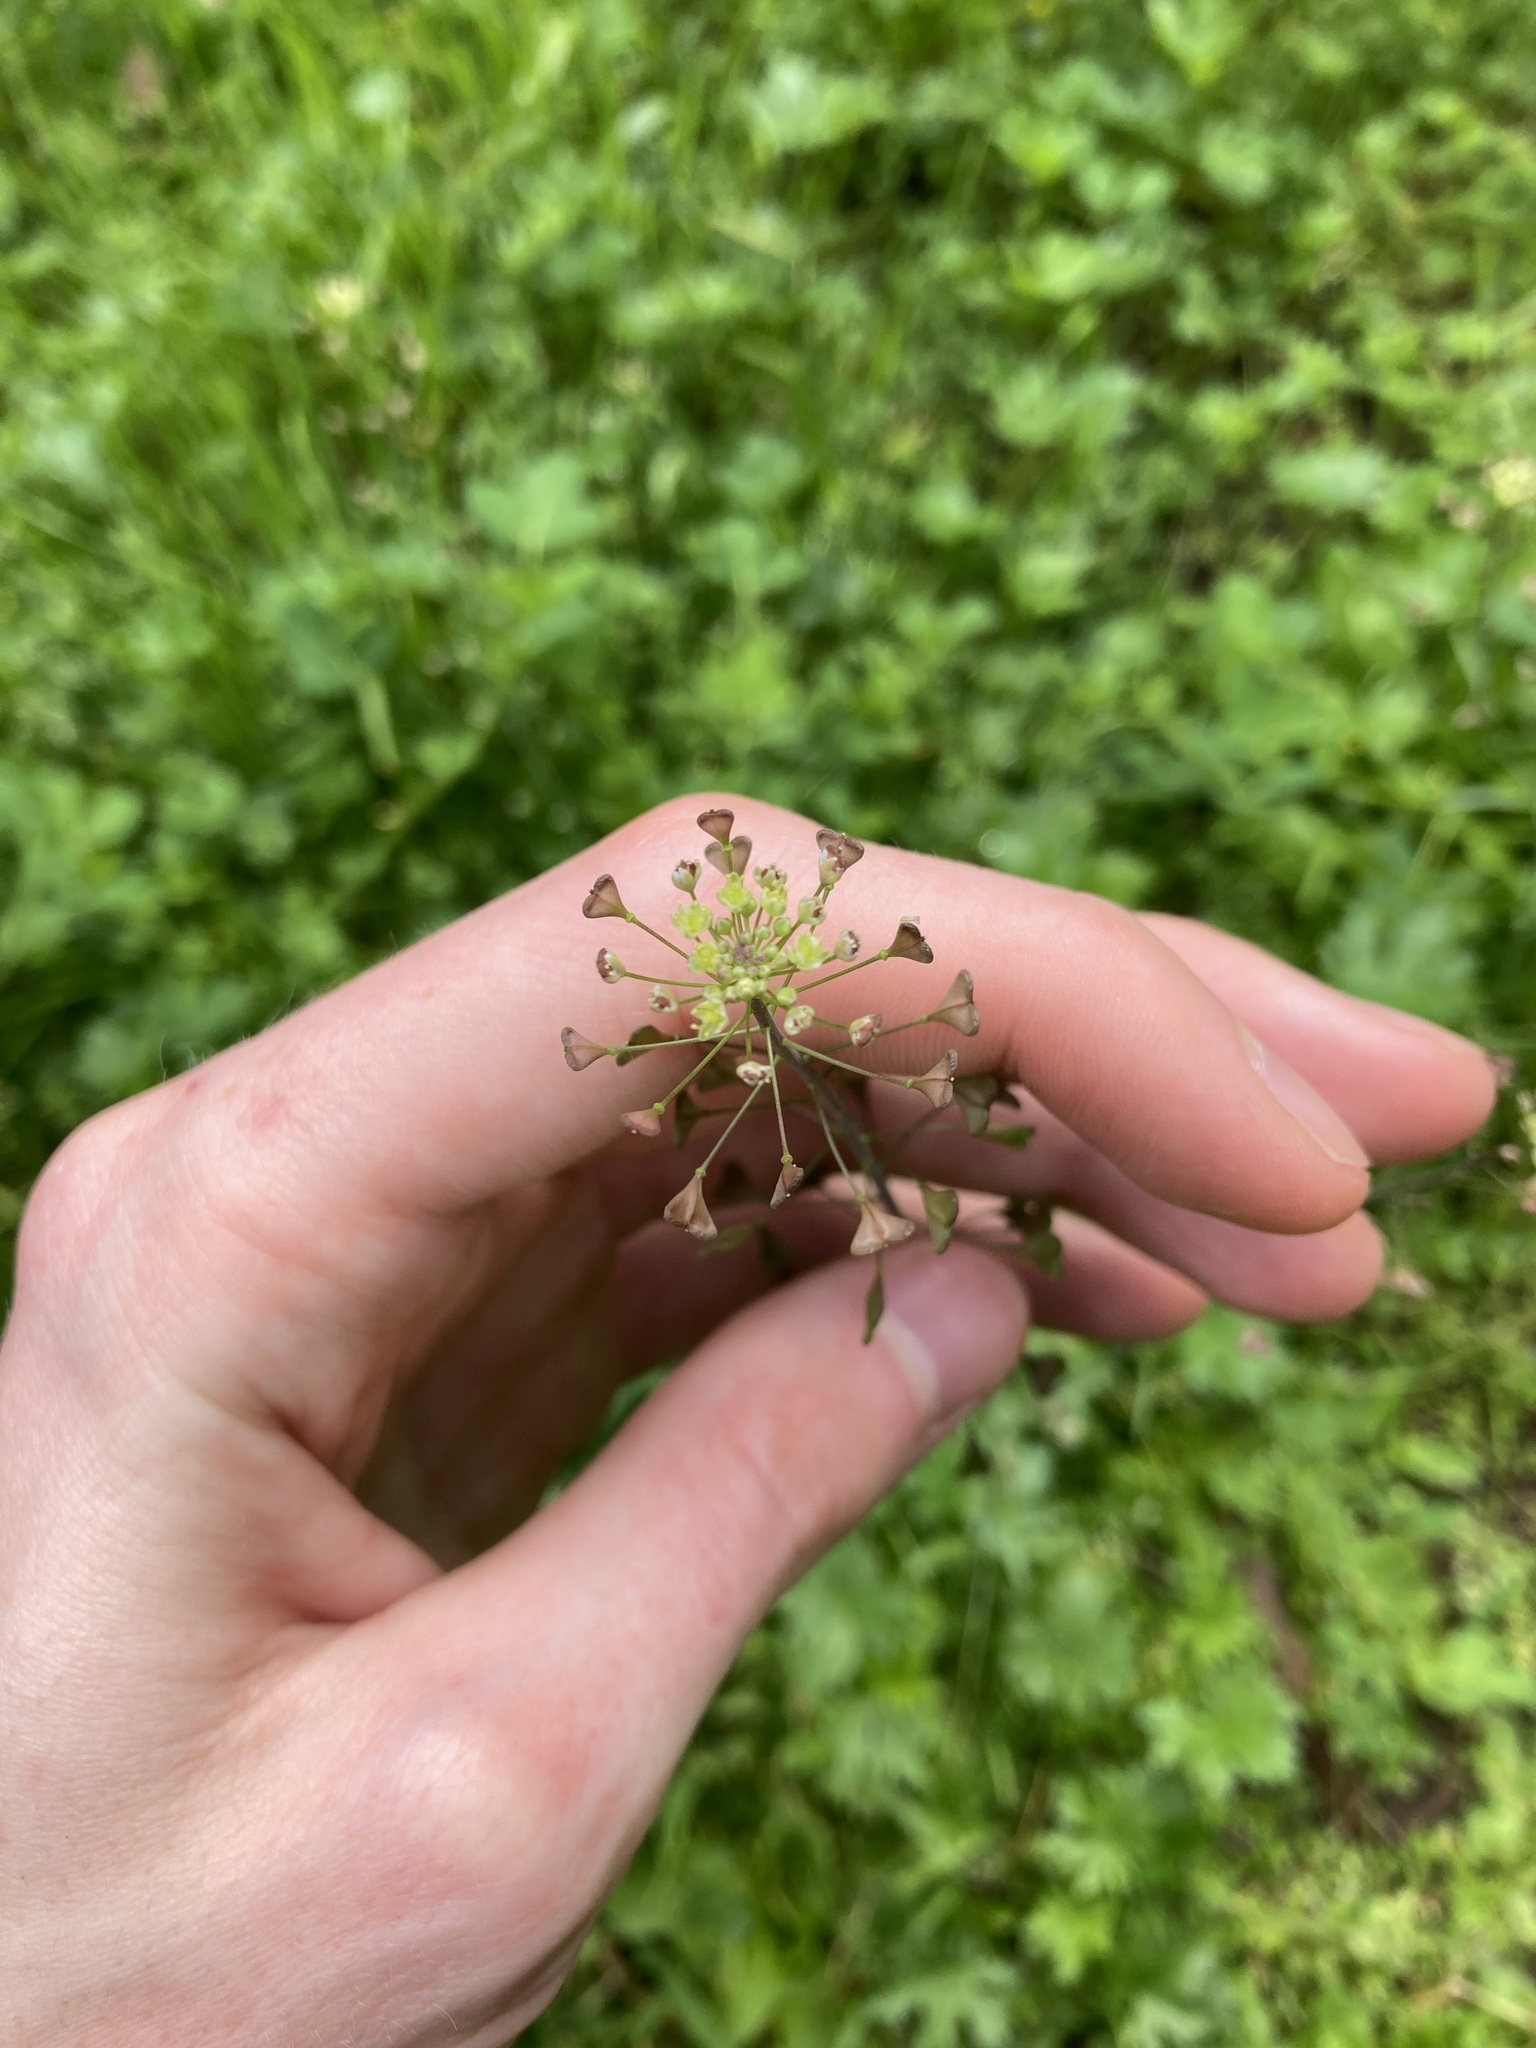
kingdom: Plantae
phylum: Tracheophyta
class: Magnoliopsida
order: Brassicales
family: Brassicaceae
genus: Capsella
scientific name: Capsella bursa-pastoris
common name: Shepherd's purse
